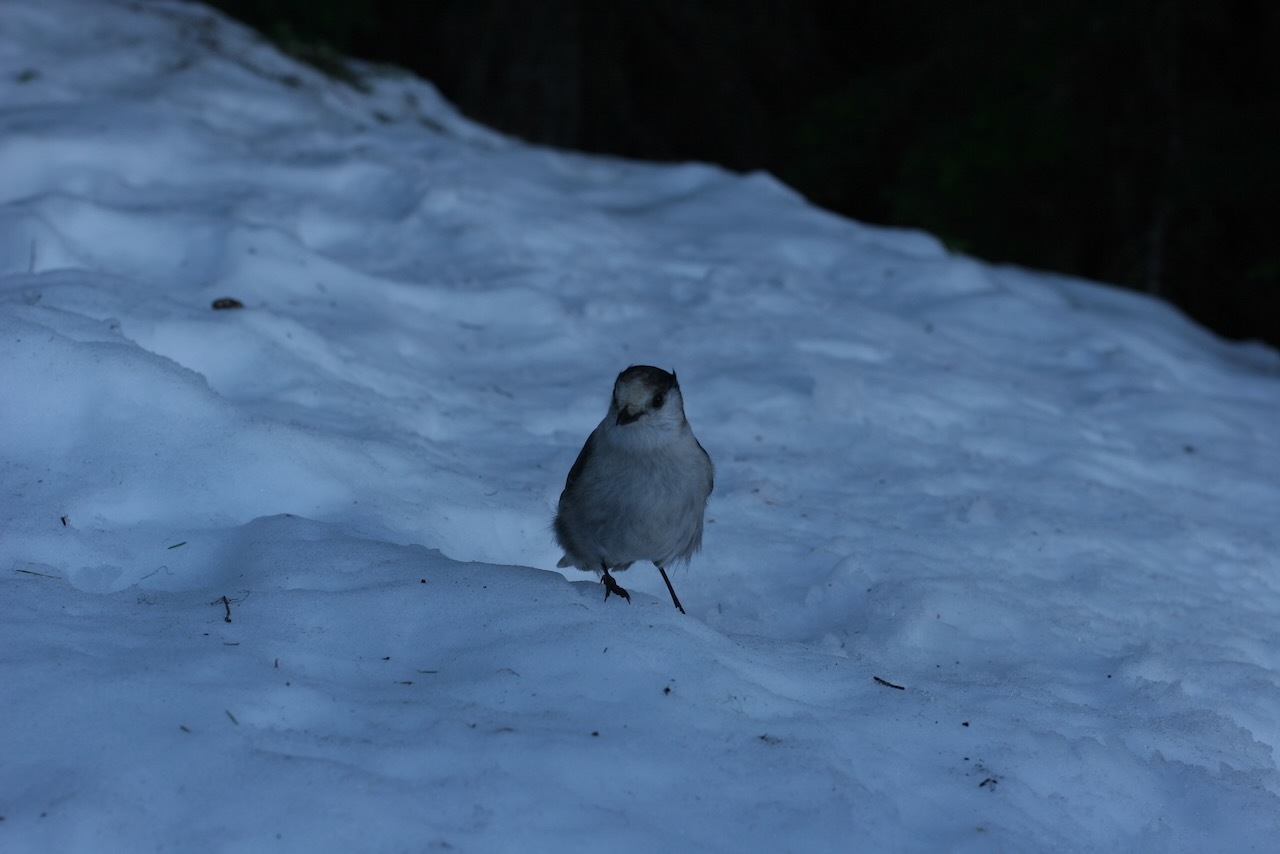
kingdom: Animalia
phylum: Chordata
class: Aves
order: Passeriformes
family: Corvidae
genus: Perisoreus
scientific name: Perisoreus canadensis
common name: Gray jay
